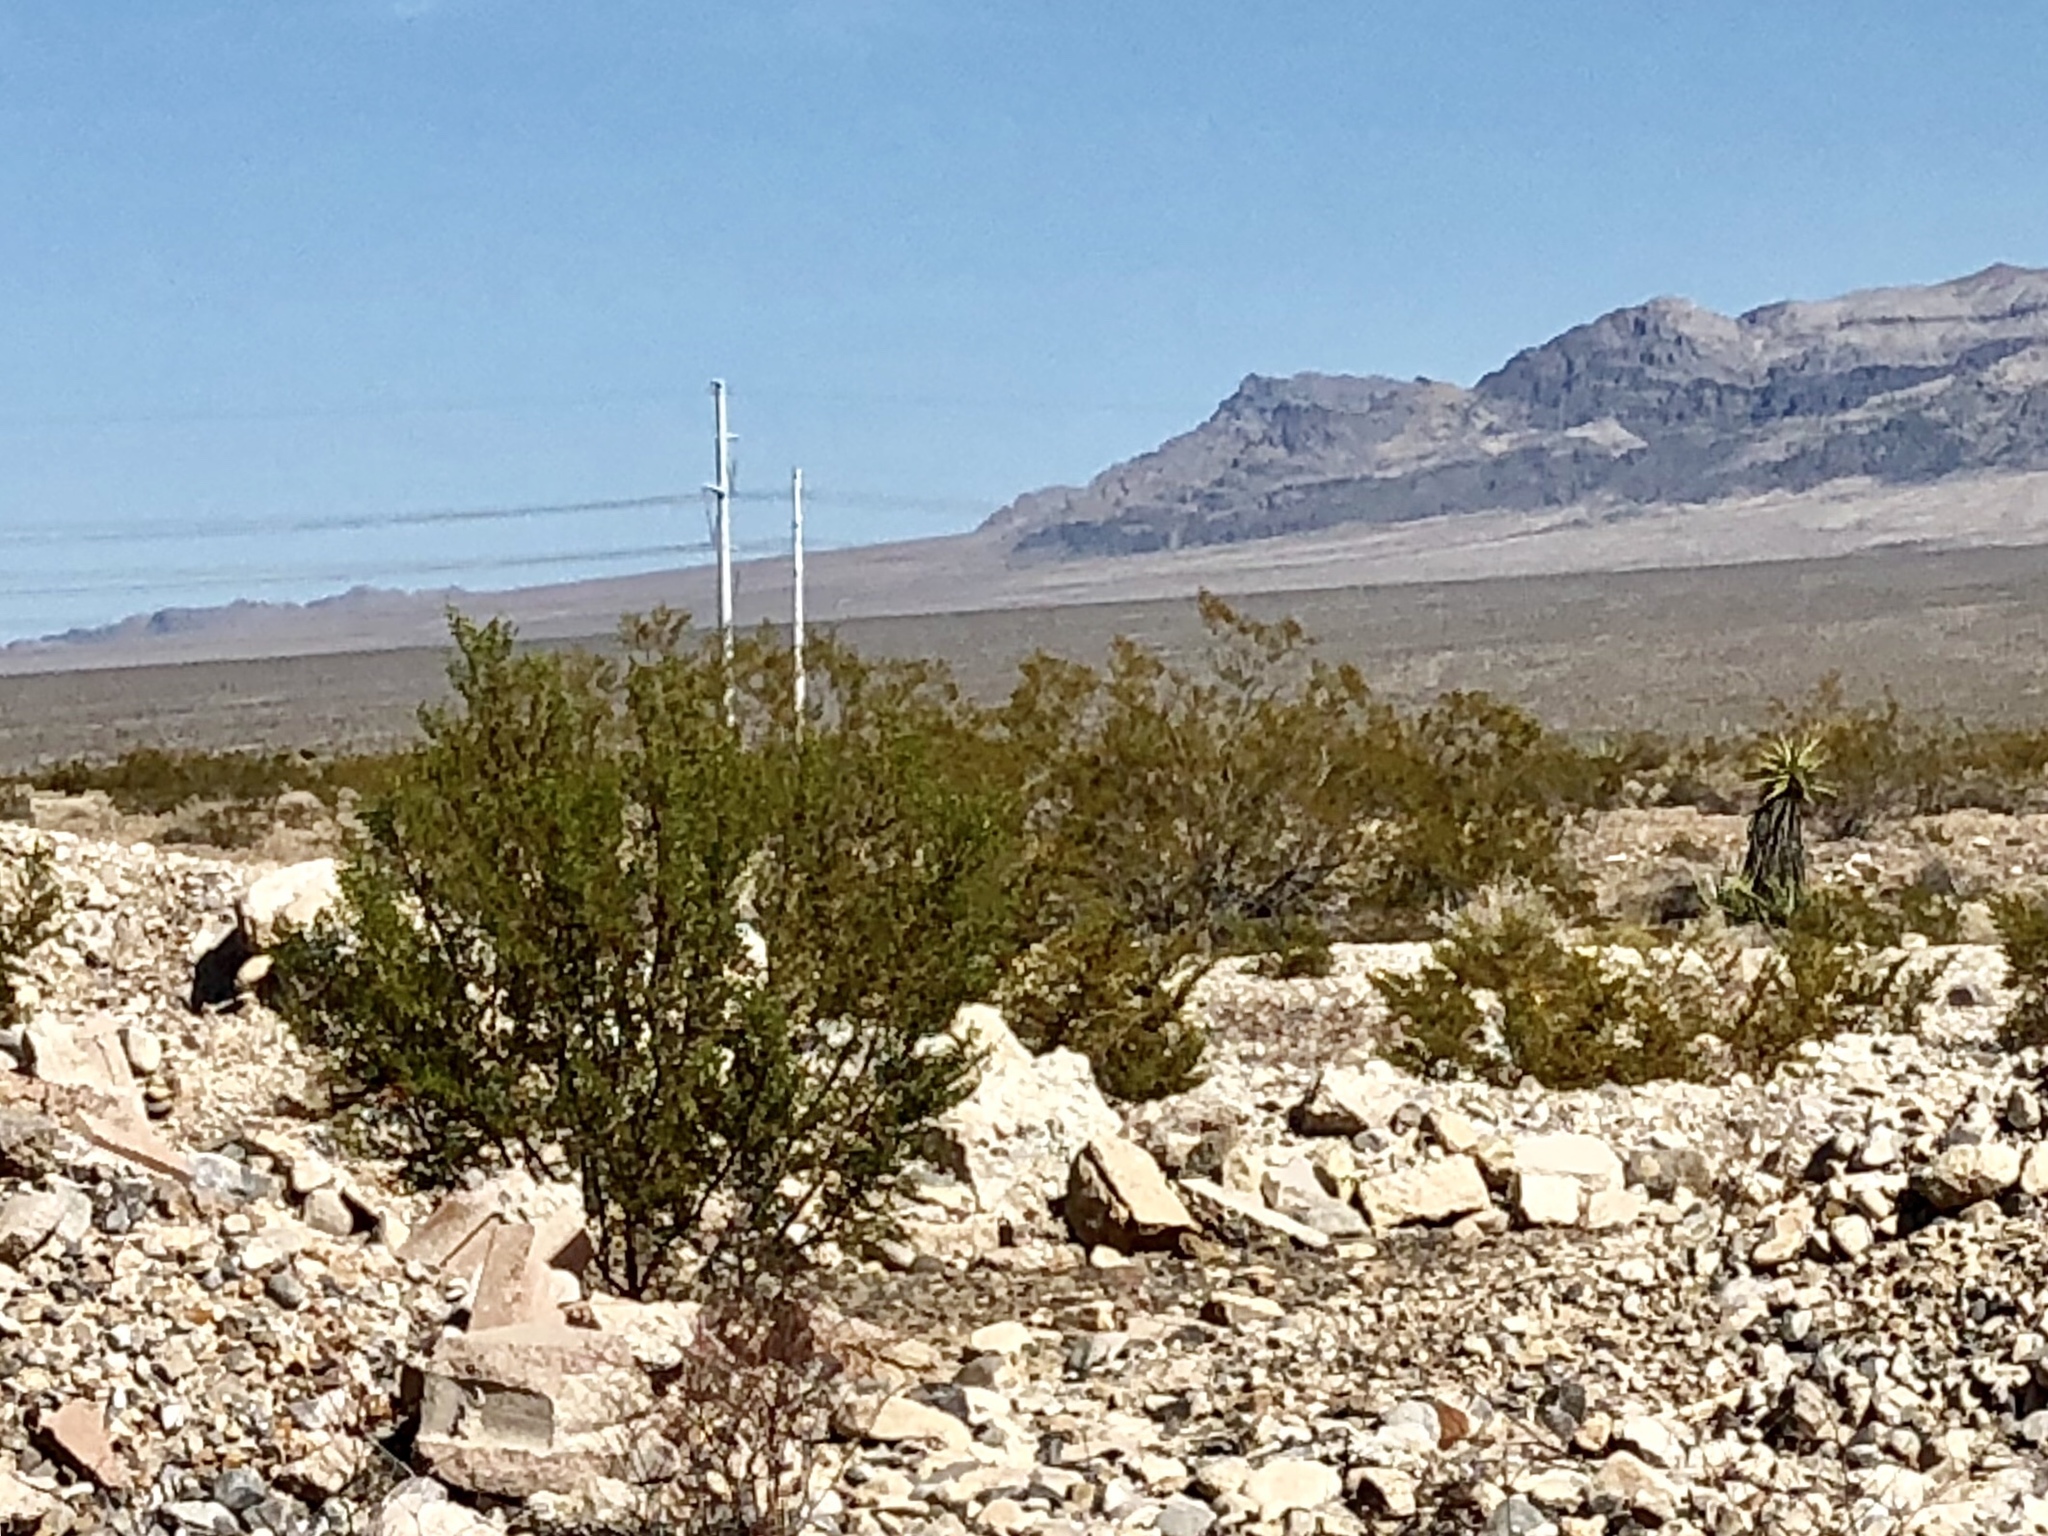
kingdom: Plantae
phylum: Tracheophyta
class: Magnoliopsida
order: Zygophyllales
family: Zygophyllaceae
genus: Larrea
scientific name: Larrea tridentata
